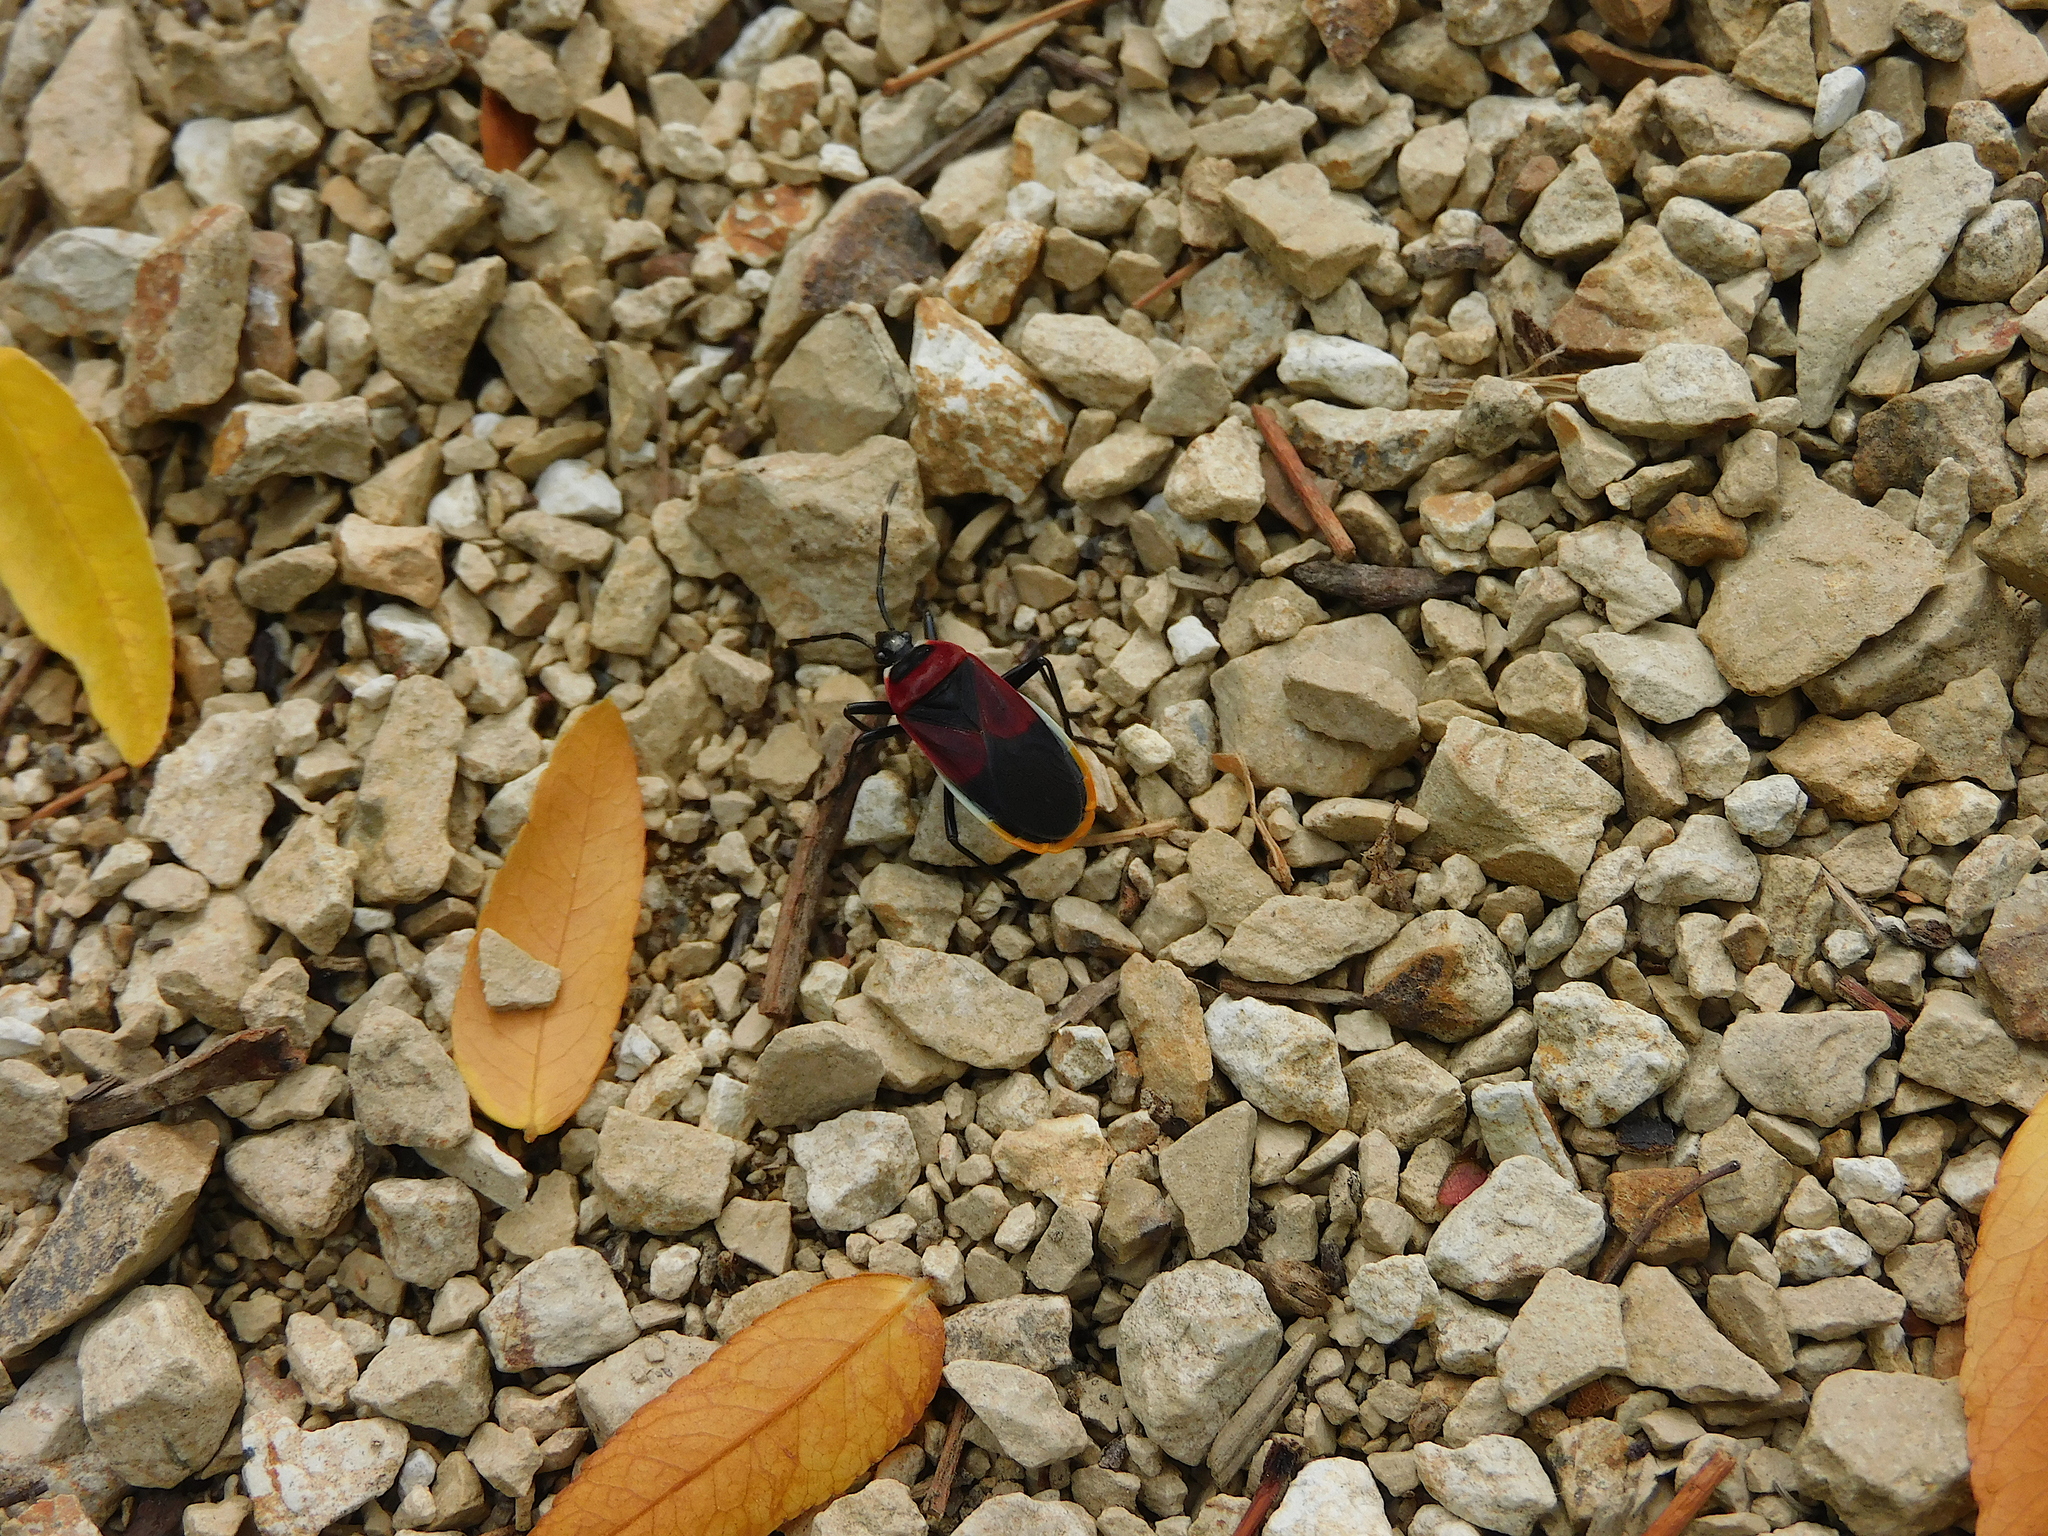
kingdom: Animalia
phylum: Arthropoda
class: Insecta
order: Hemiptera
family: Pyrrhocoridae
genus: Dindymus
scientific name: Dindymus
